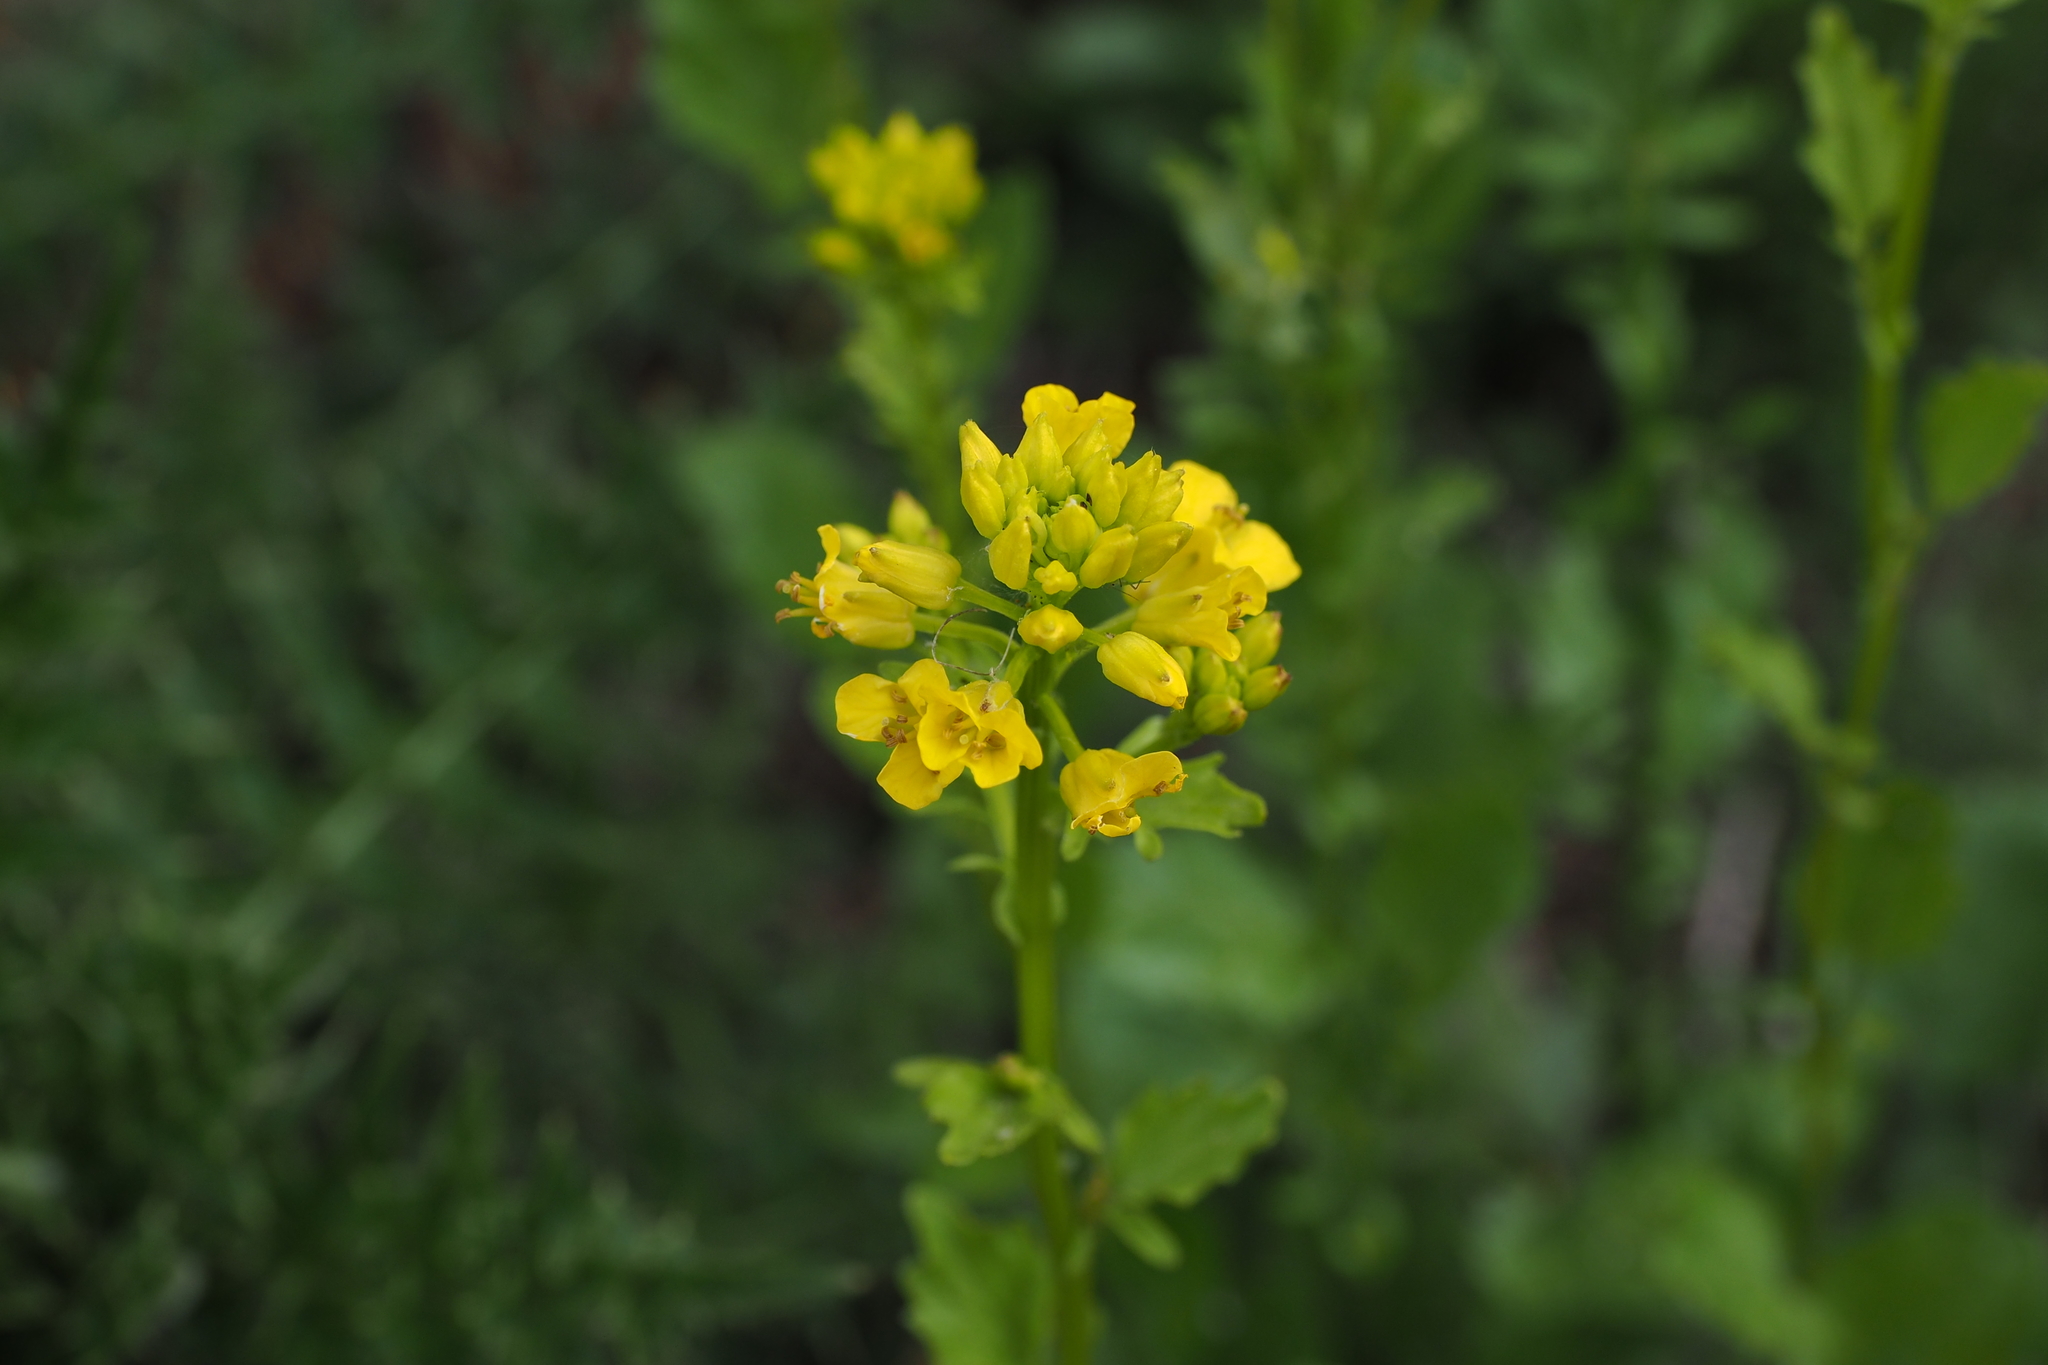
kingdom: Plantae
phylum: Tracheophyta
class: Magnoliopsida
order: Brassicales
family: Brassicaceae
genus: Barbarea
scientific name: Barbarea orthoceras
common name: American wintercress
